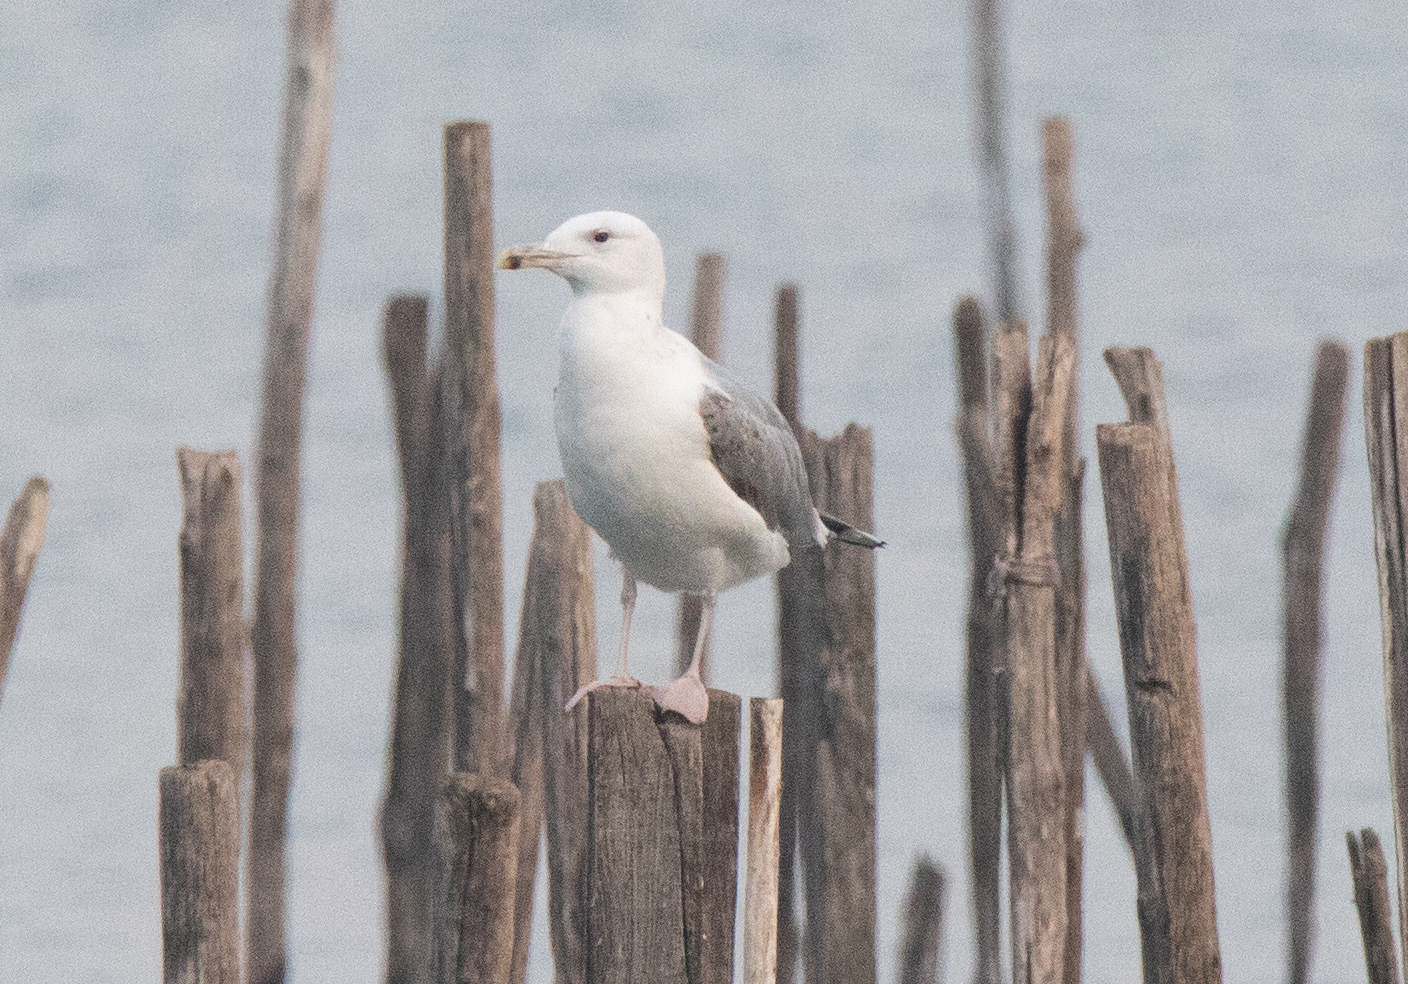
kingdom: Animalia
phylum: Chordata
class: Aves
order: Charadriiformes
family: Laridae
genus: Larus
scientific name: Larus cachinnans
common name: Caspian gull
